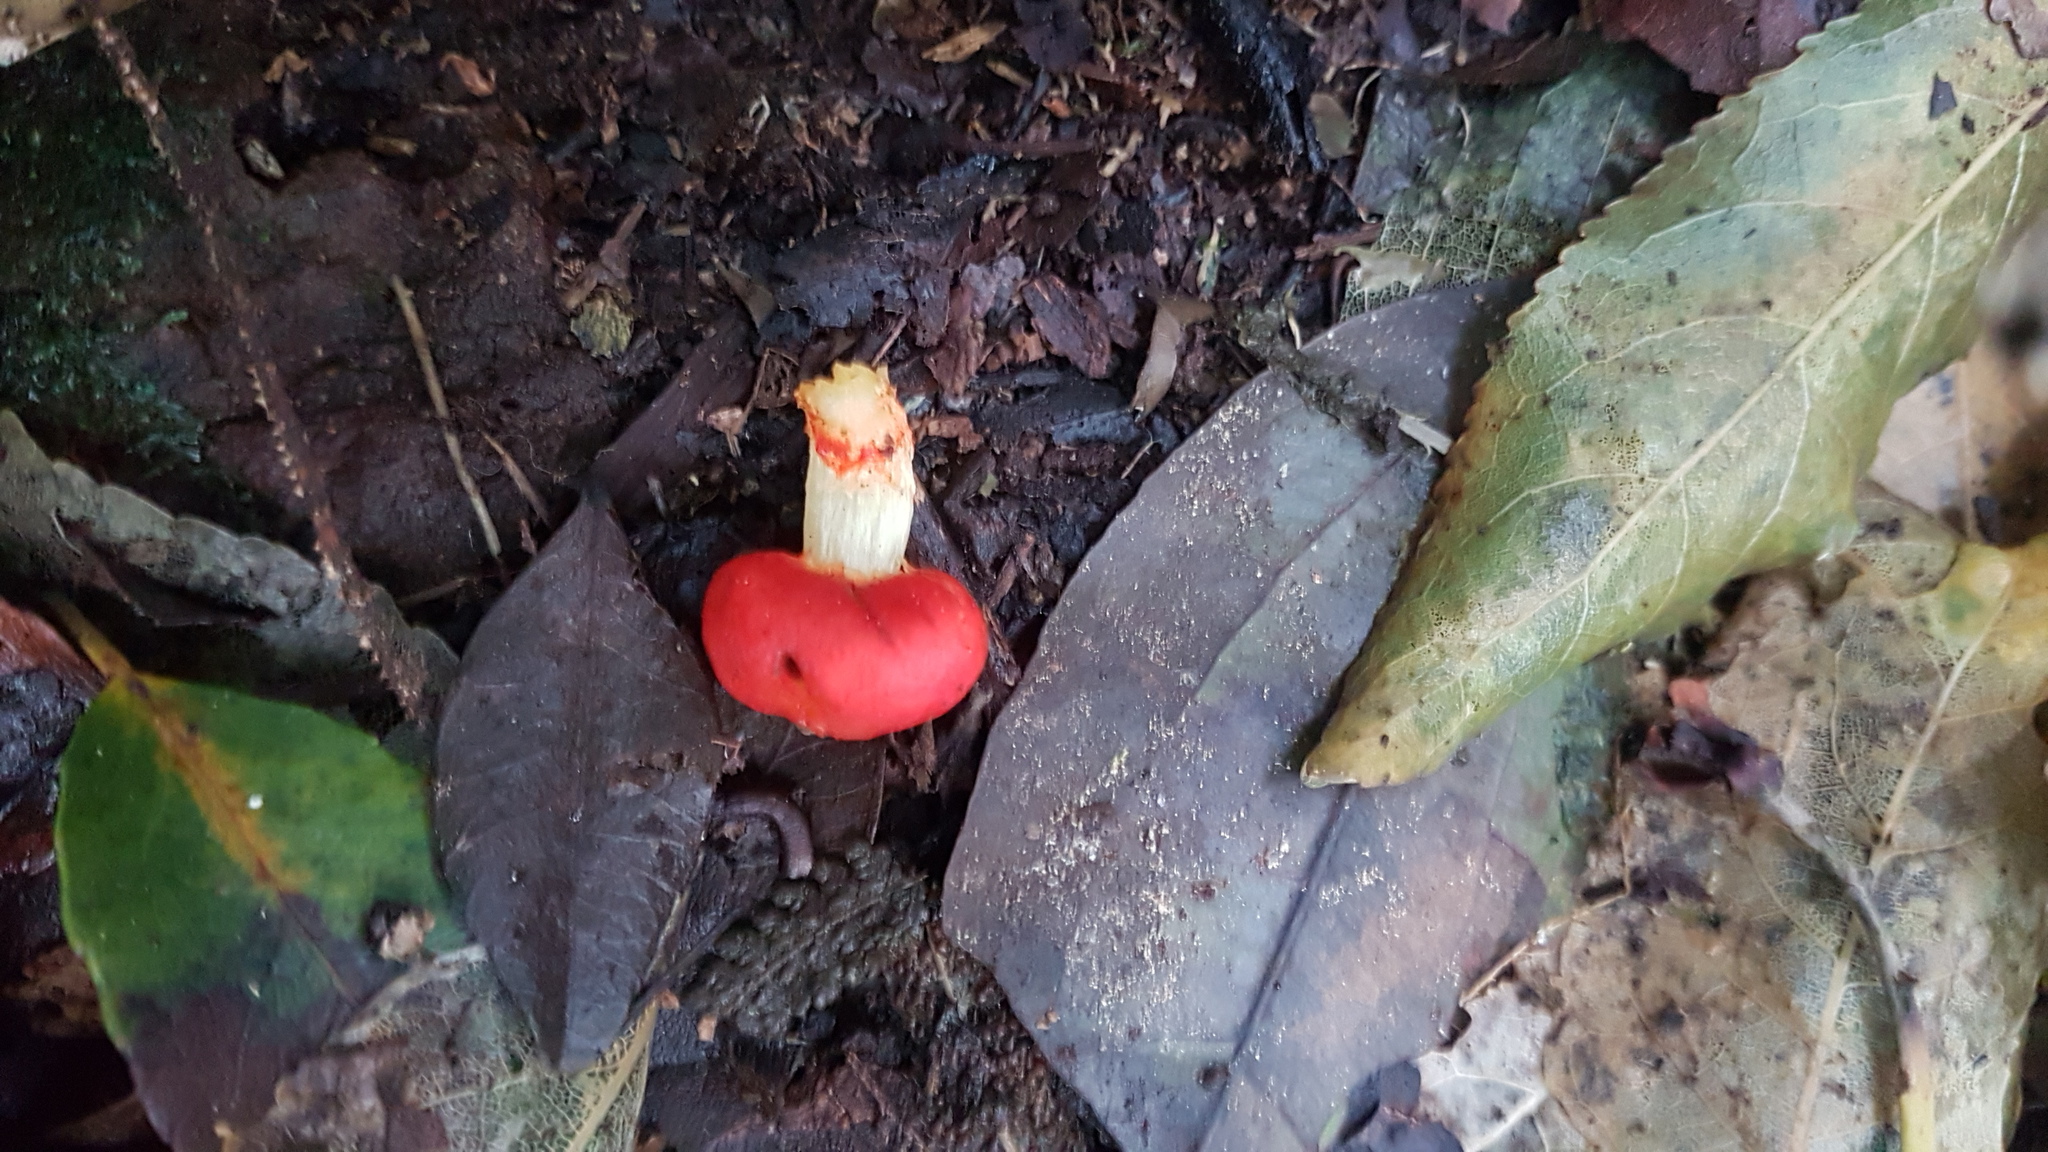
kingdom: Fungi
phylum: Basidiomycota
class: Agaricomycetes
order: Agaricales
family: Strophariaceae
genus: Leratiomyces
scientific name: Leratiomyces erythrocephalus
